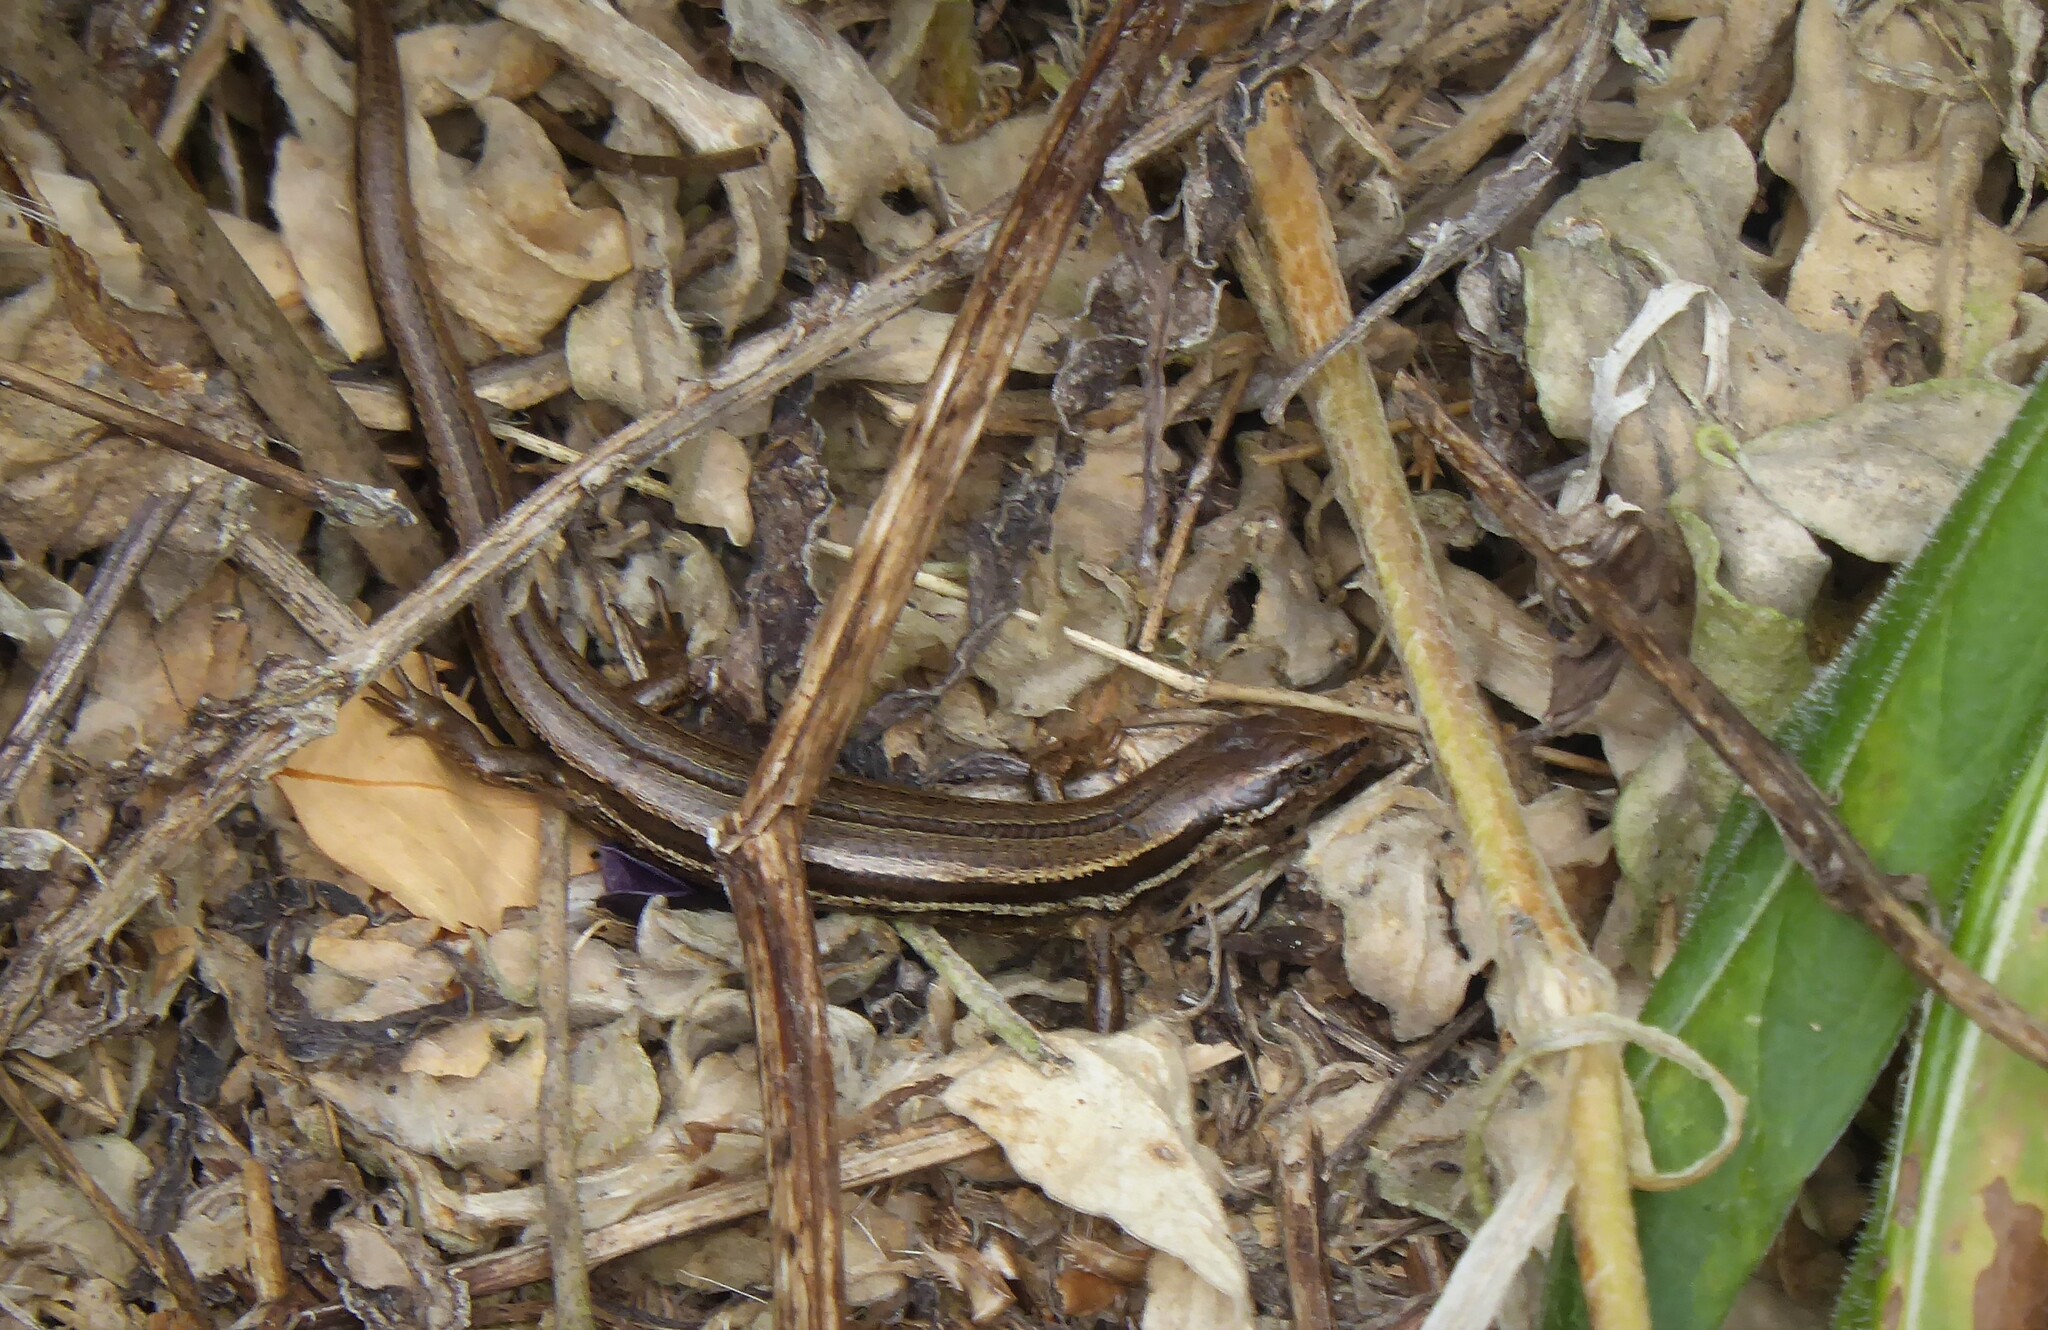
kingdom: Animalia
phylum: Chordata
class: Squamata
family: Scincidae
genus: Oligosoma
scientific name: Oligosoma polychroma
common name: Common new zealand skink
